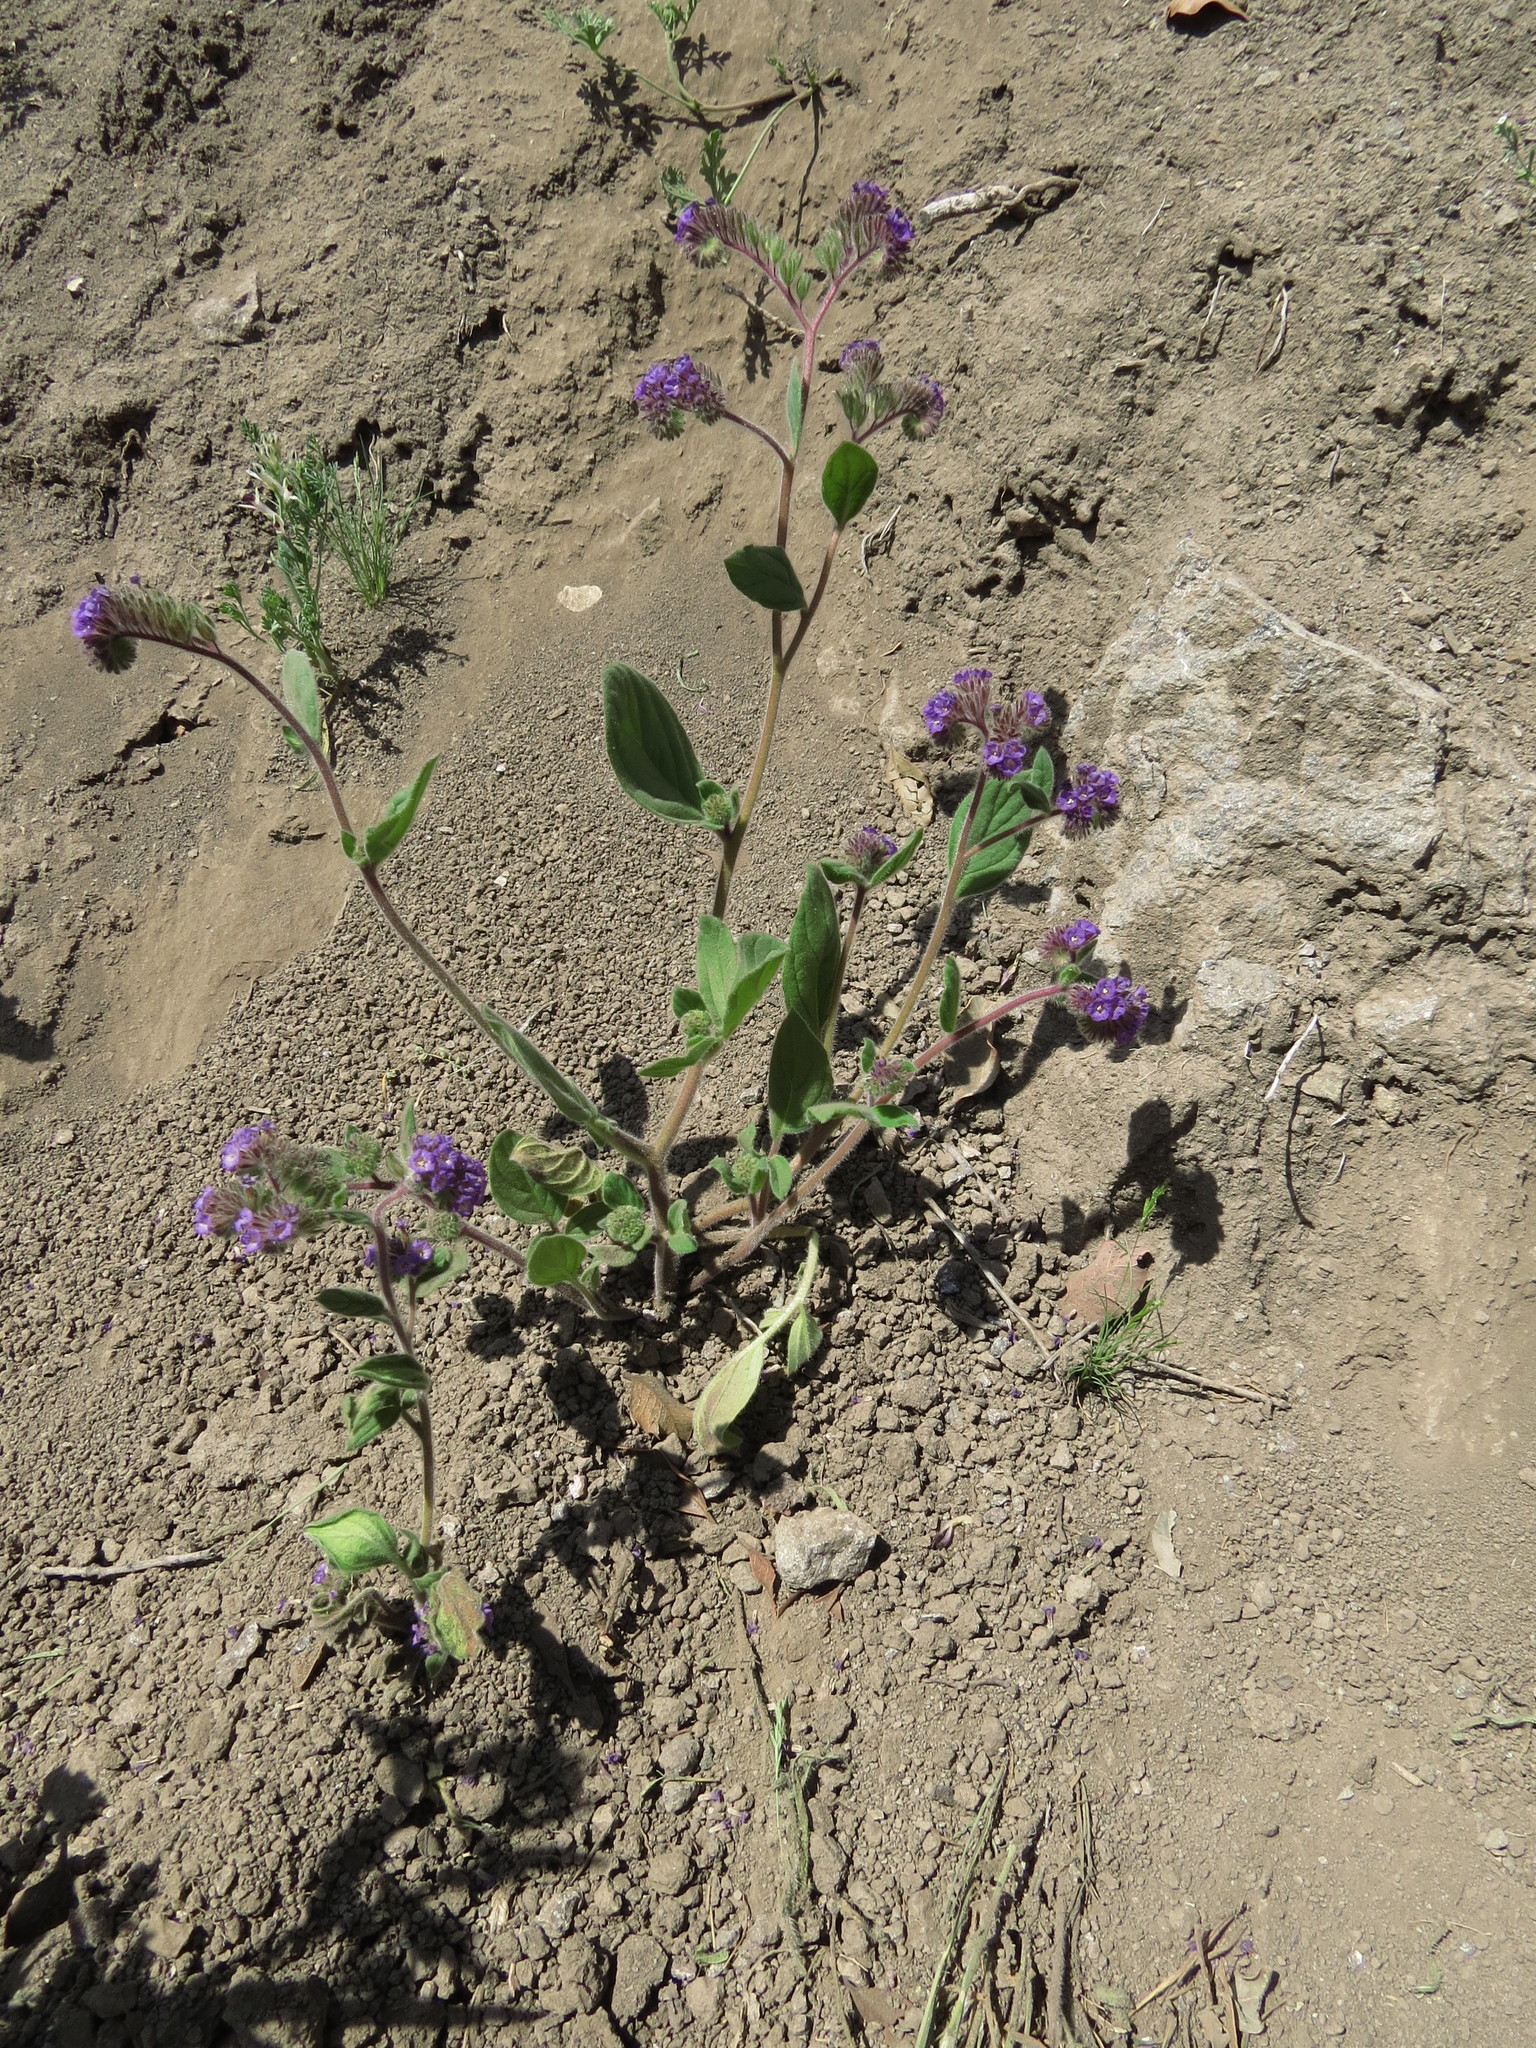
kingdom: Plantae
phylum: Tracheophyta
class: Magnoliopsida
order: Boraginales
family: Hydrophyllaceae
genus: Phacelia
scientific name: Phacelia brachyantha
